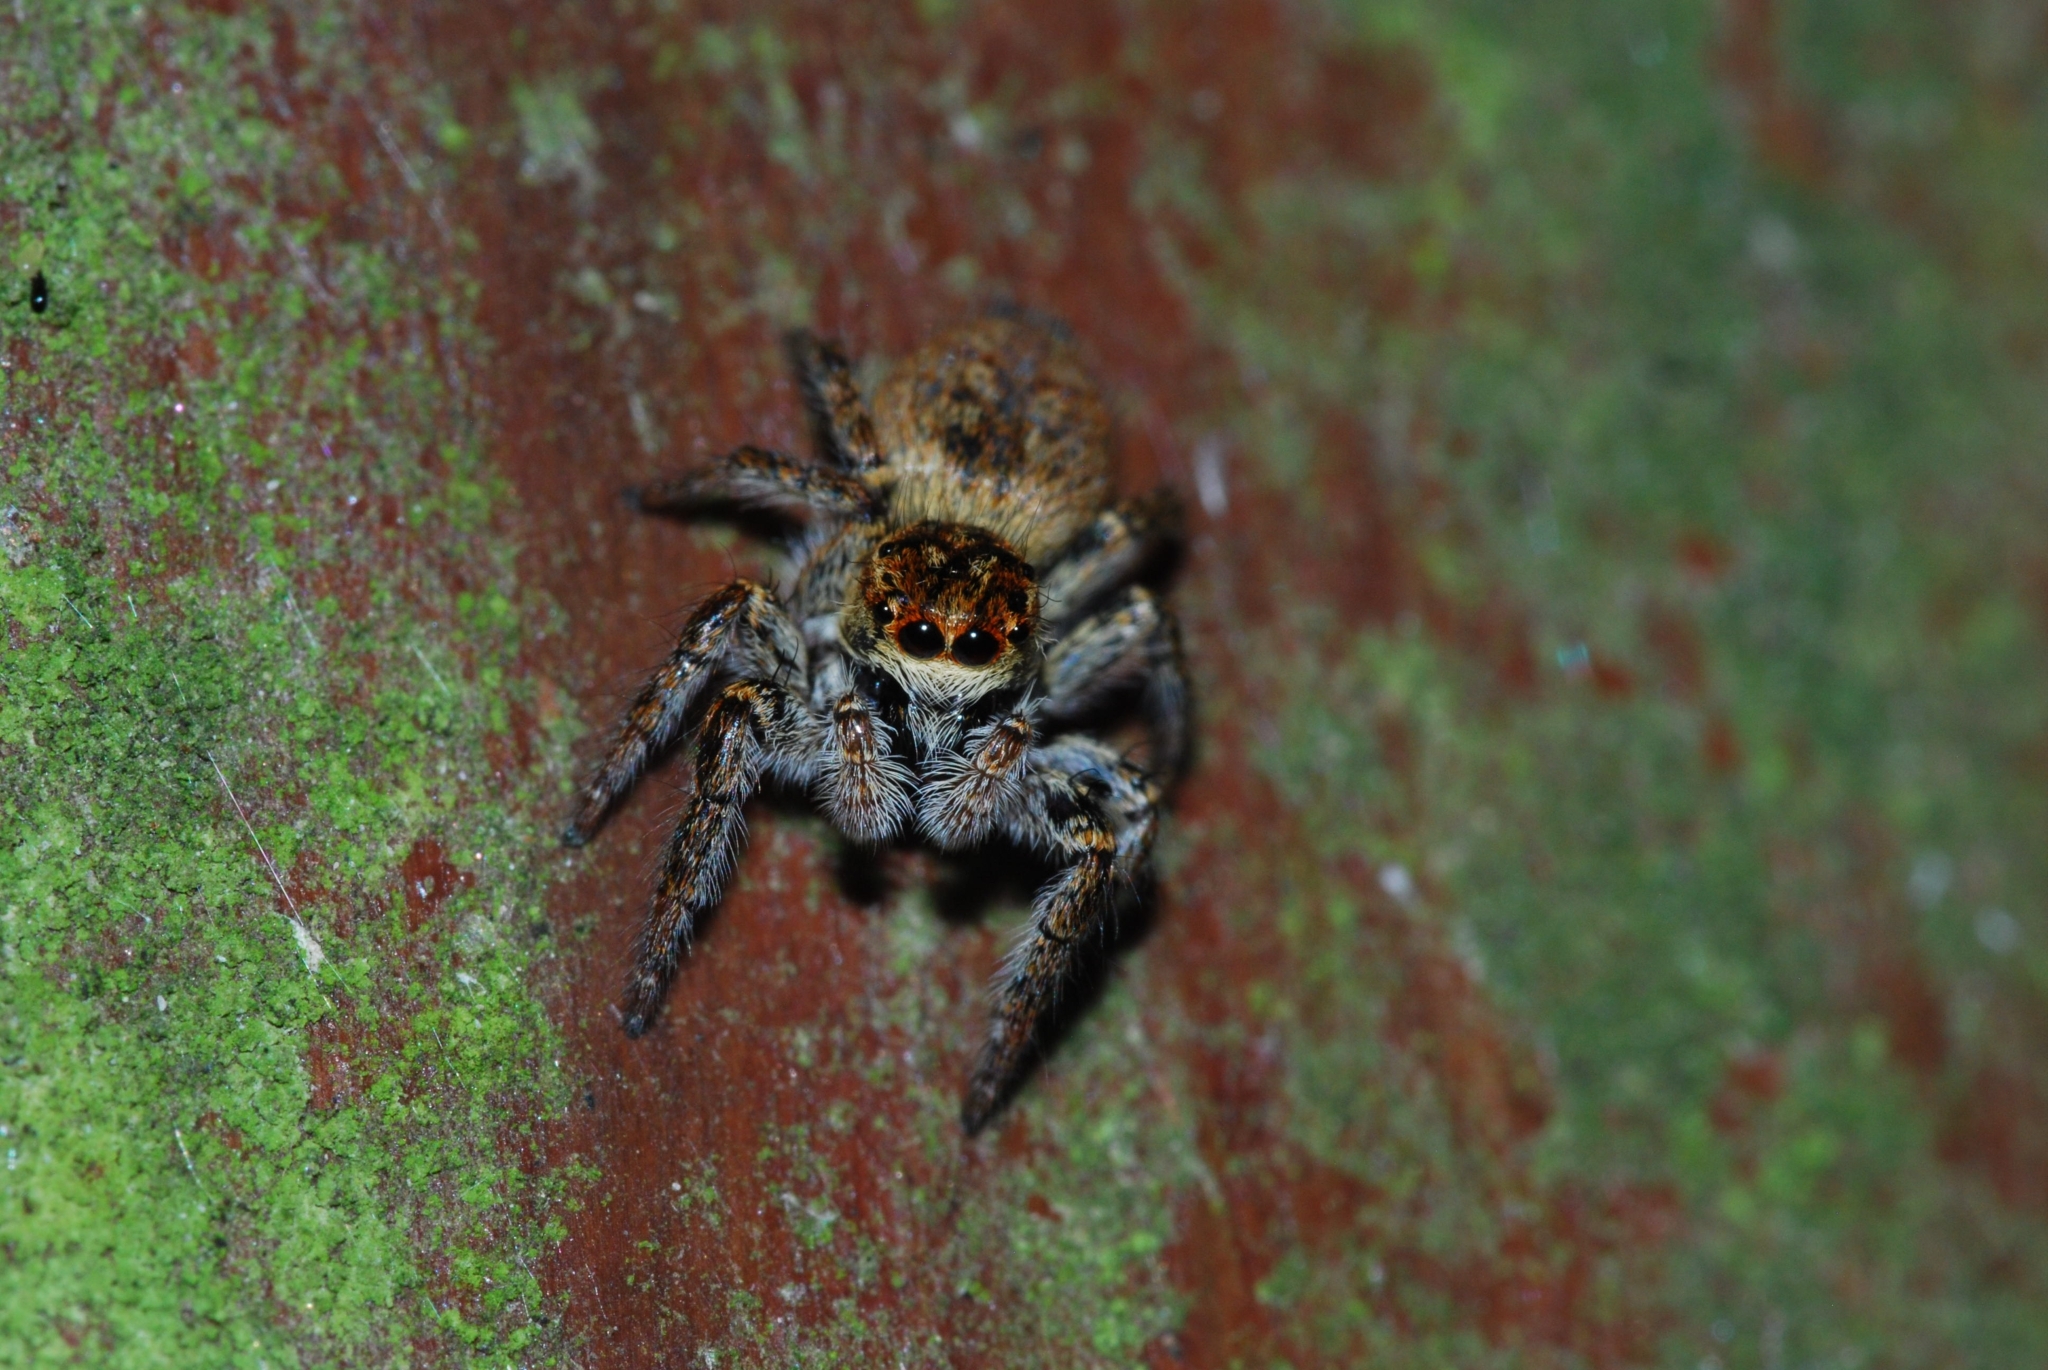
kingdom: Animalia
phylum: Arthropoda
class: Arachnida
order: Araneae
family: Salticidae
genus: Carrhotus
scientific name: Carrhotus xanthogramma
